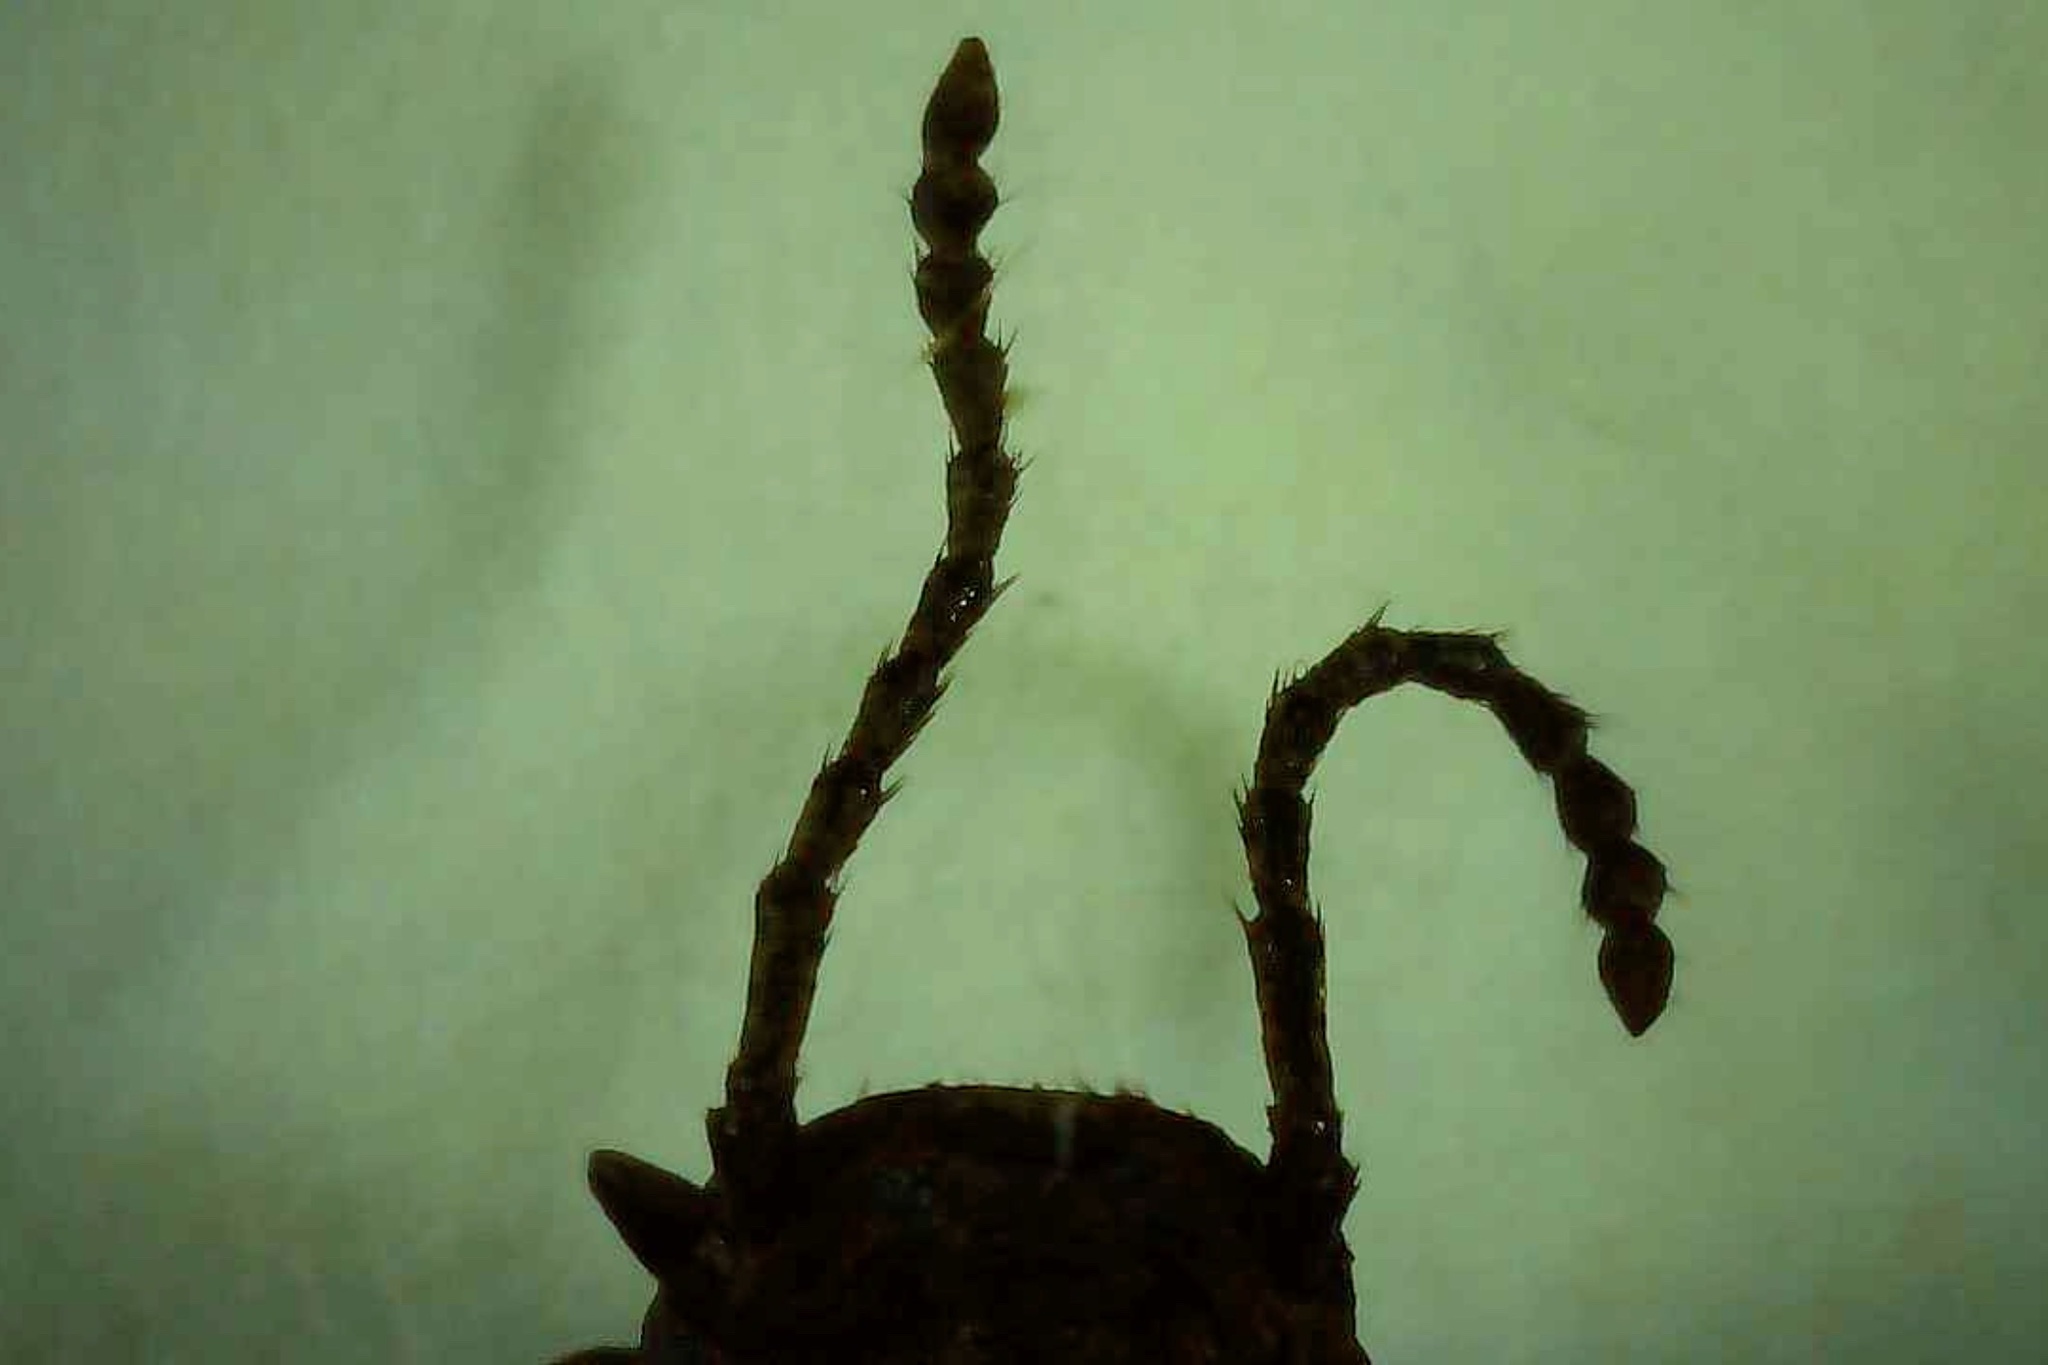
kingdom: Animalia
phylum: Arthropoda
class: Insecta
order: Coleoptera
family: Tenebrionidae
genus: Eleodes
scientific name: Eleodes tricostata
